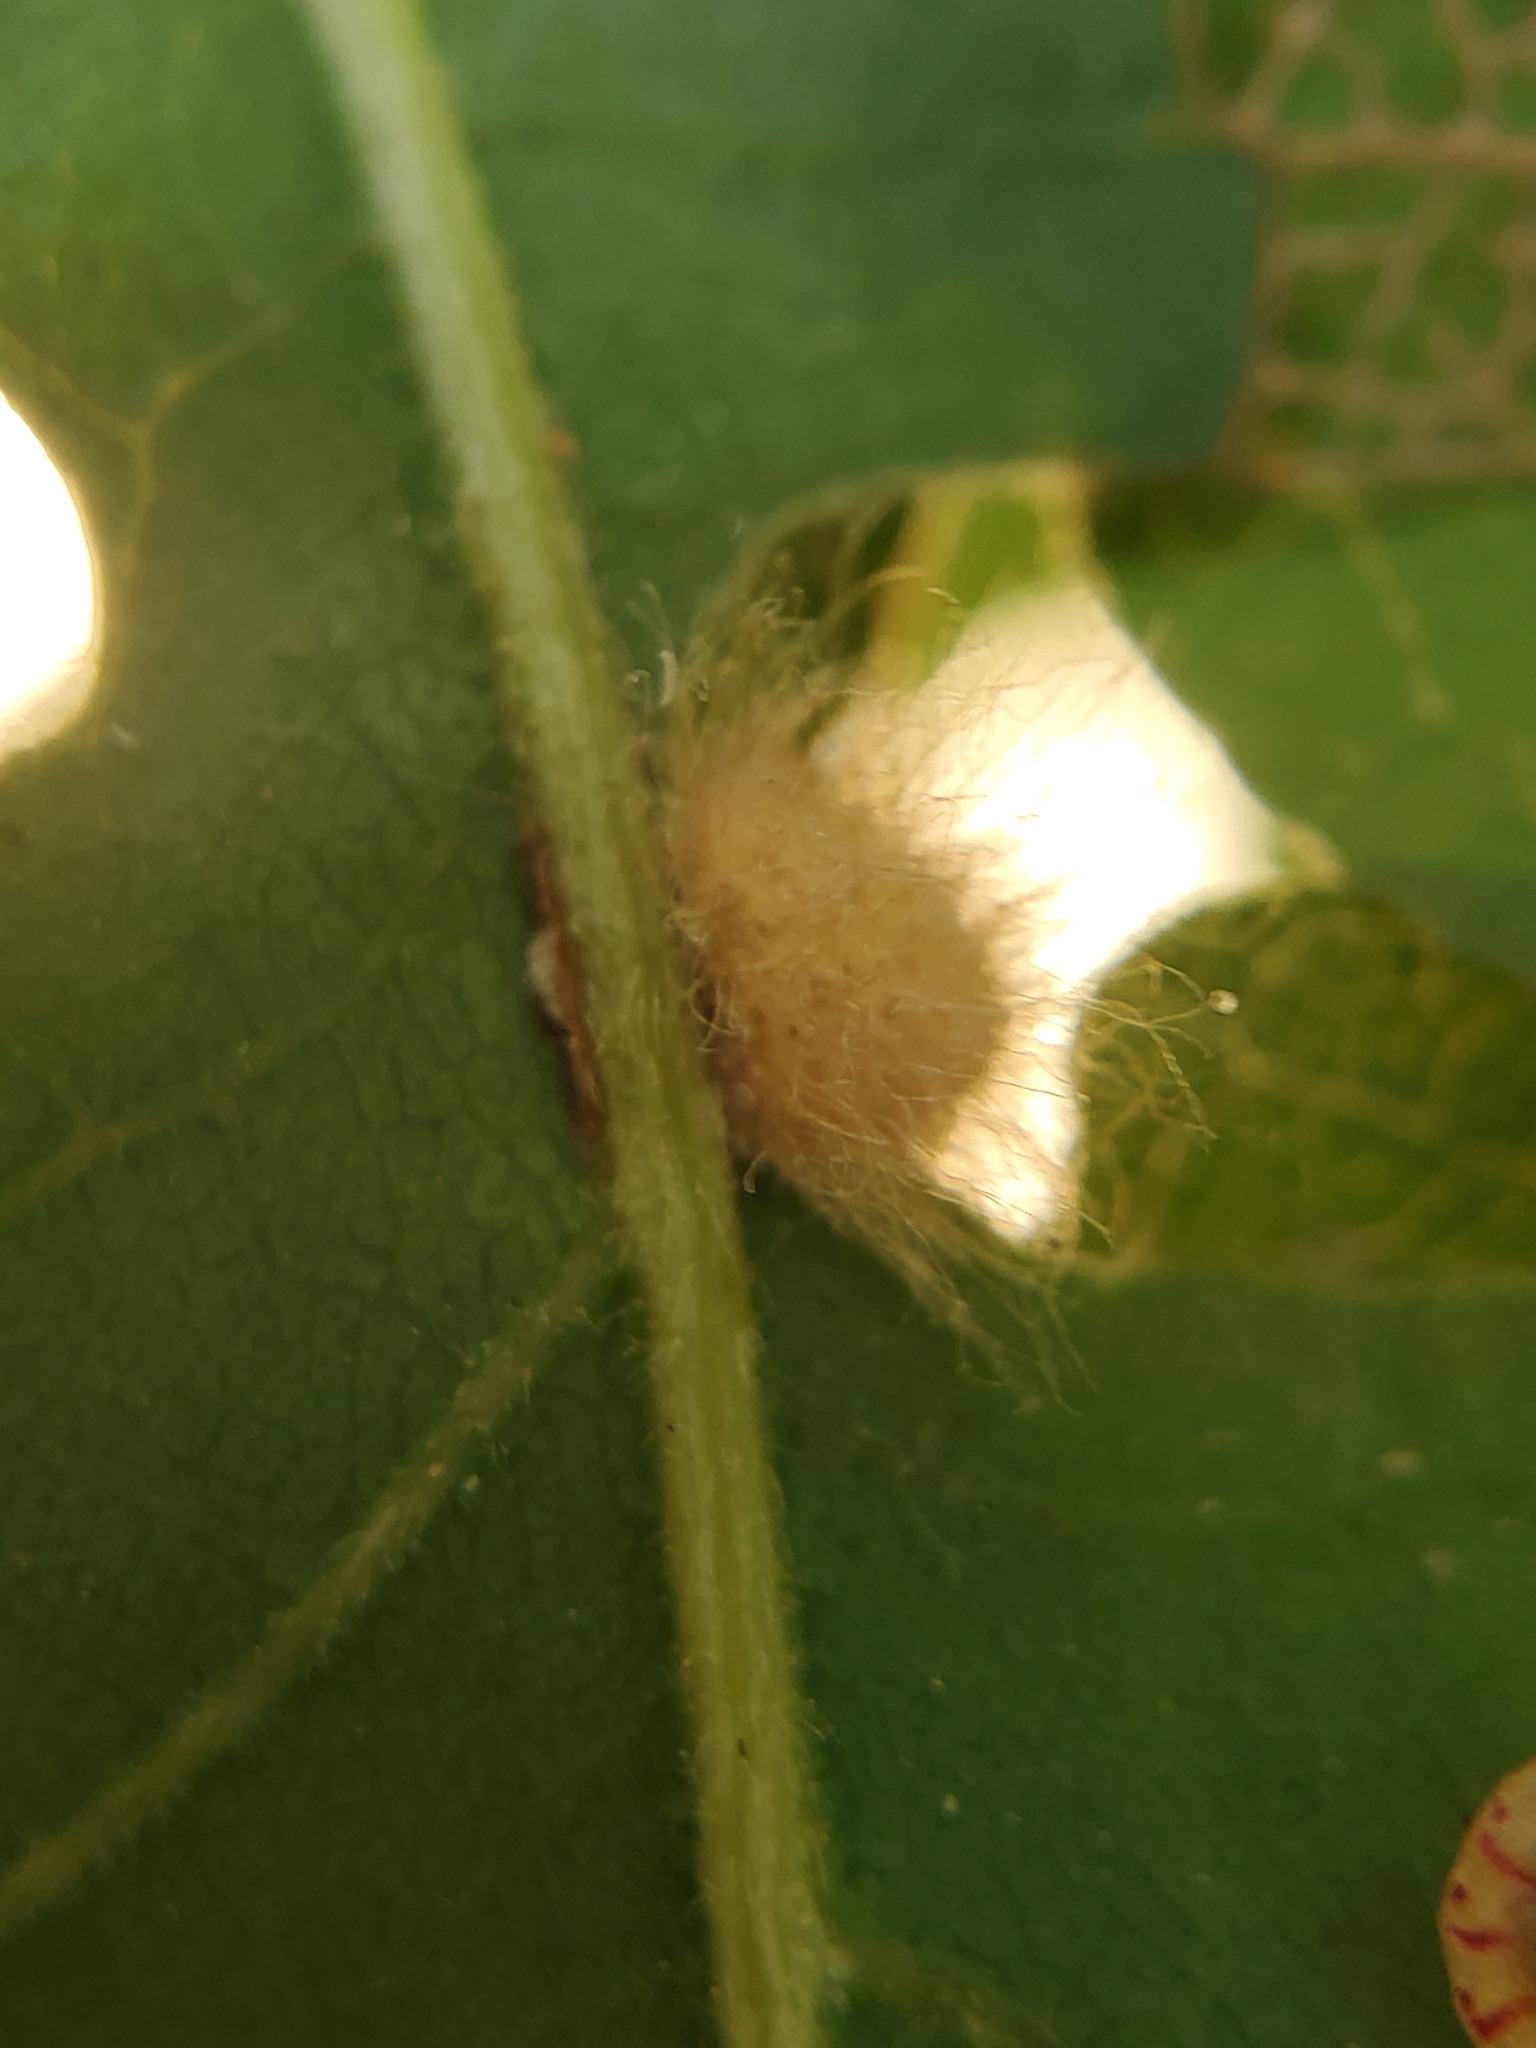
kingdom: Animalia
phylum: Arthropoda
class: Insecta
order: Hymenoptera
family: Cynipidae
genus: Andricus
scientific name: Andricus Druon fullawayi
